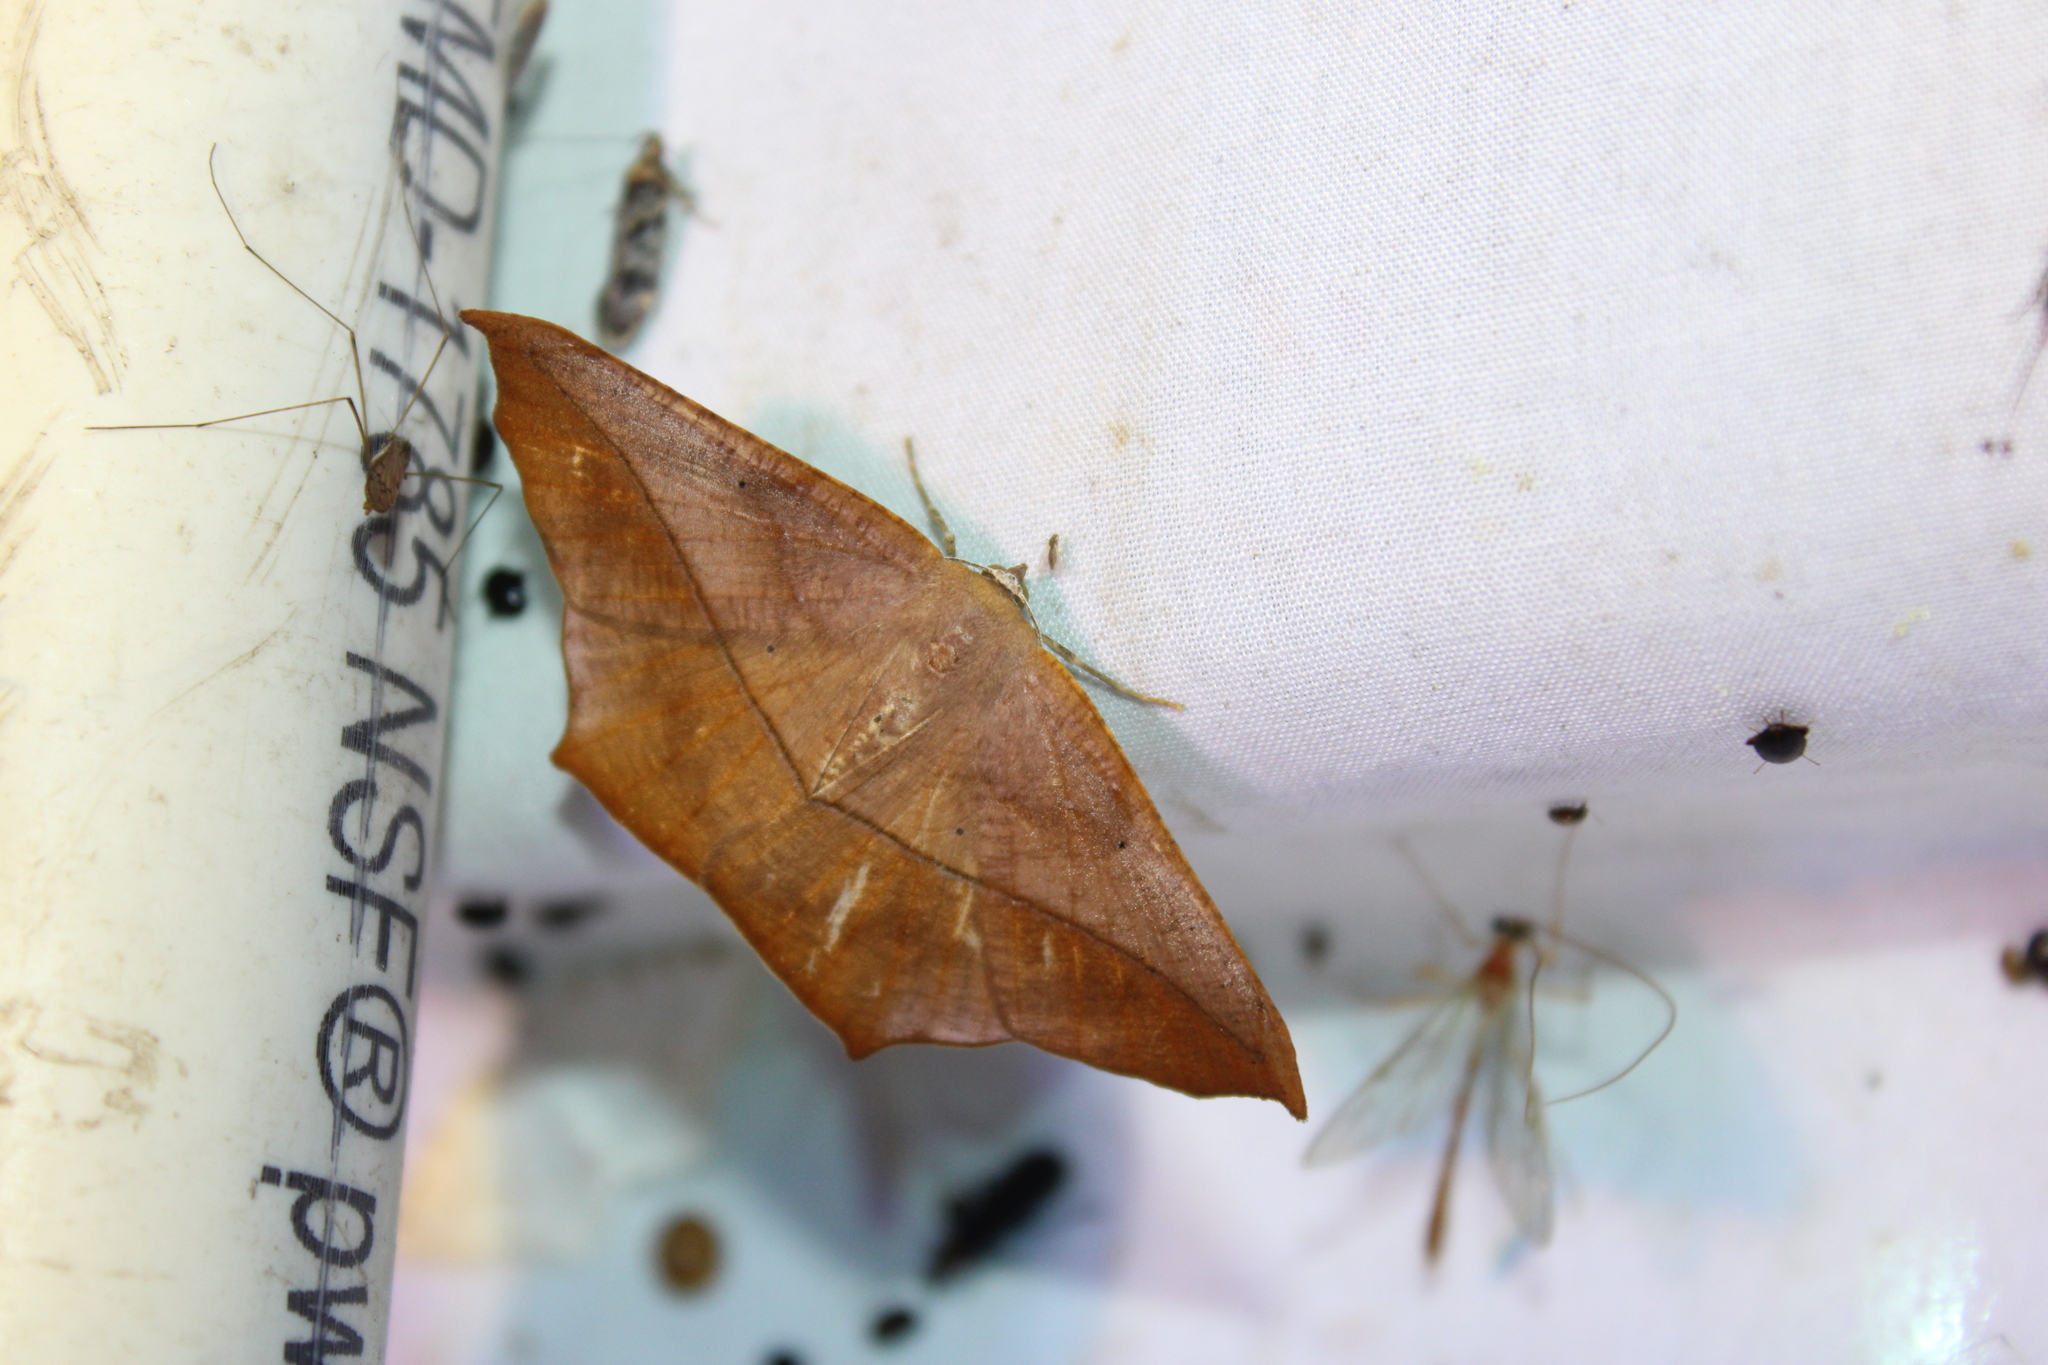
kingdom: Animalia
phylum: Arthropoda
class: Insecta
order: Lepidoptera
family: Geometridae
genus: Prochoerodes
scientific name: Prochoerodes lineola
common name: Large maple spanworm
